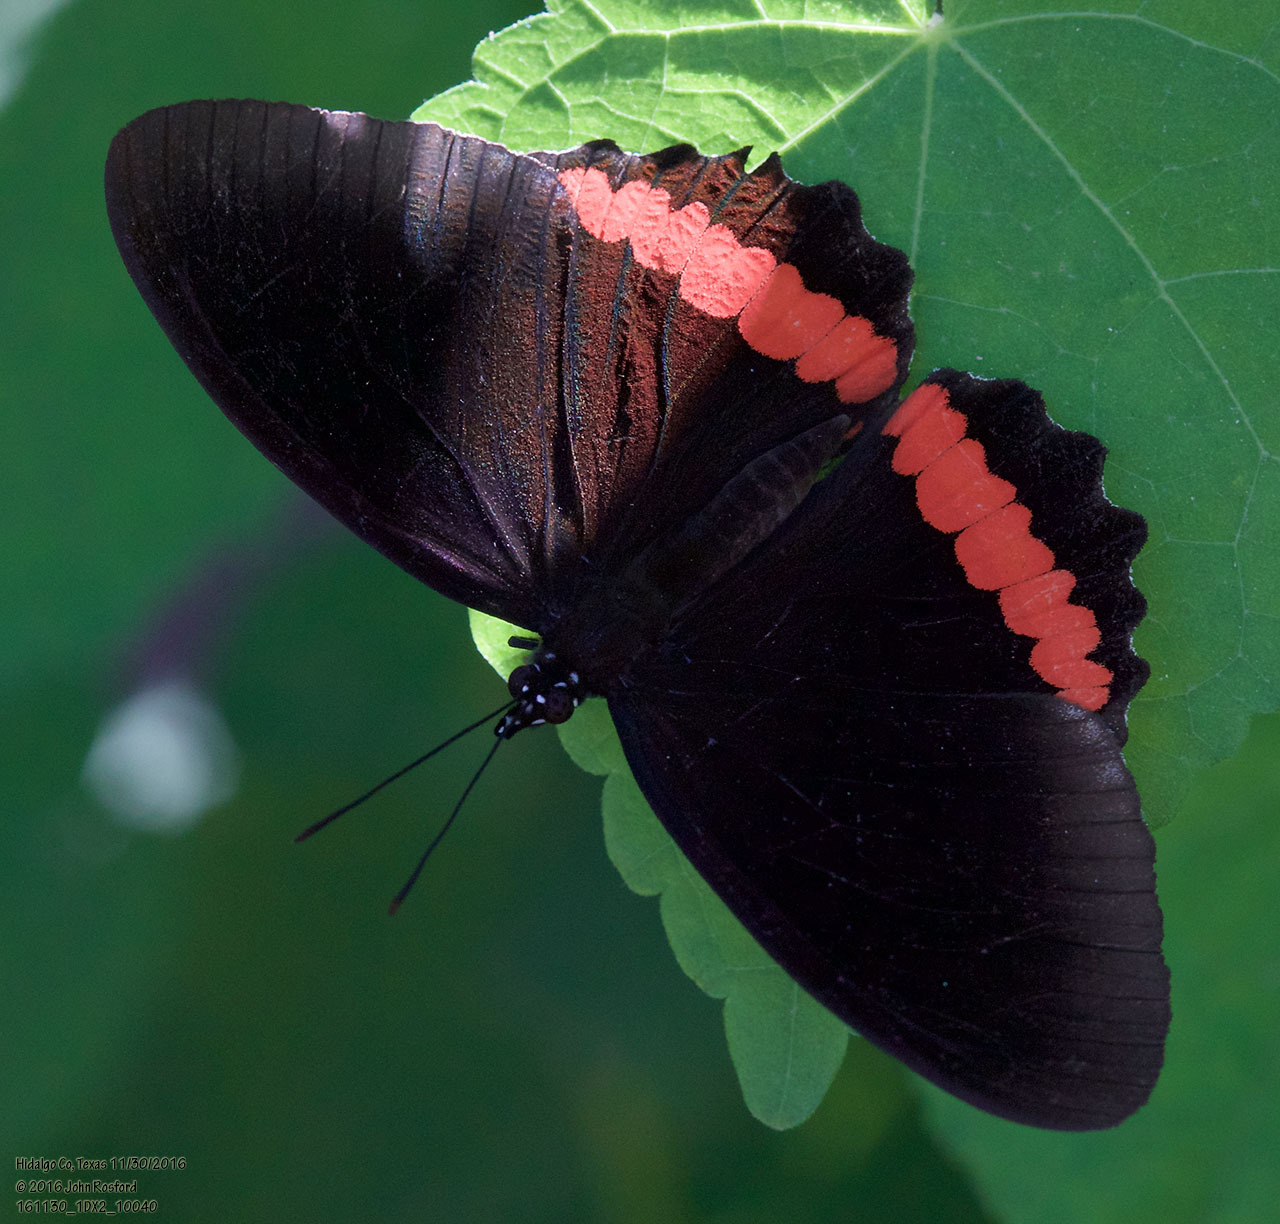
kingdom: Animalia
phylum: Arthropoda
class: Insecta
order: Lepidoptera
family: Nymphalidae
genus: Biblis
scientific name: Biblis aganisa
